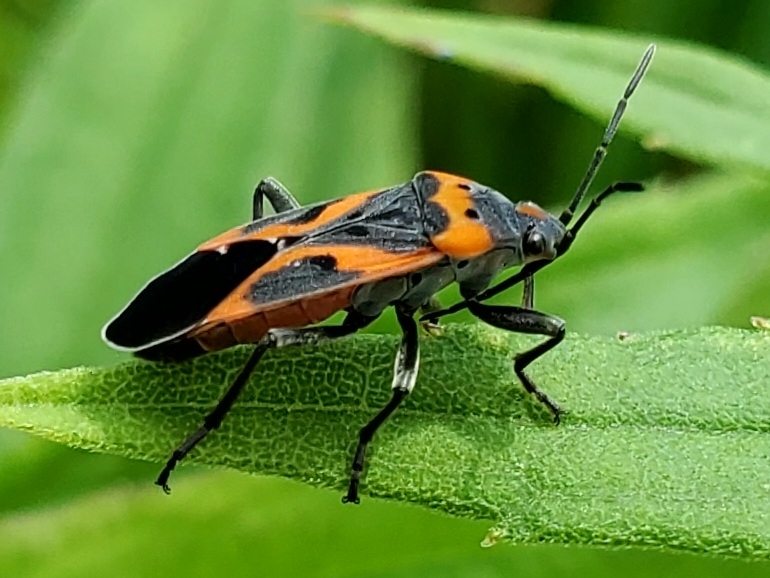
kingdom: Animalia
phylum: Arthropoda
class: Insecta
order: Hemiptera
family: Lygaeidae
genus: Lygaeus
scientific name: Lygaeus kalmii
